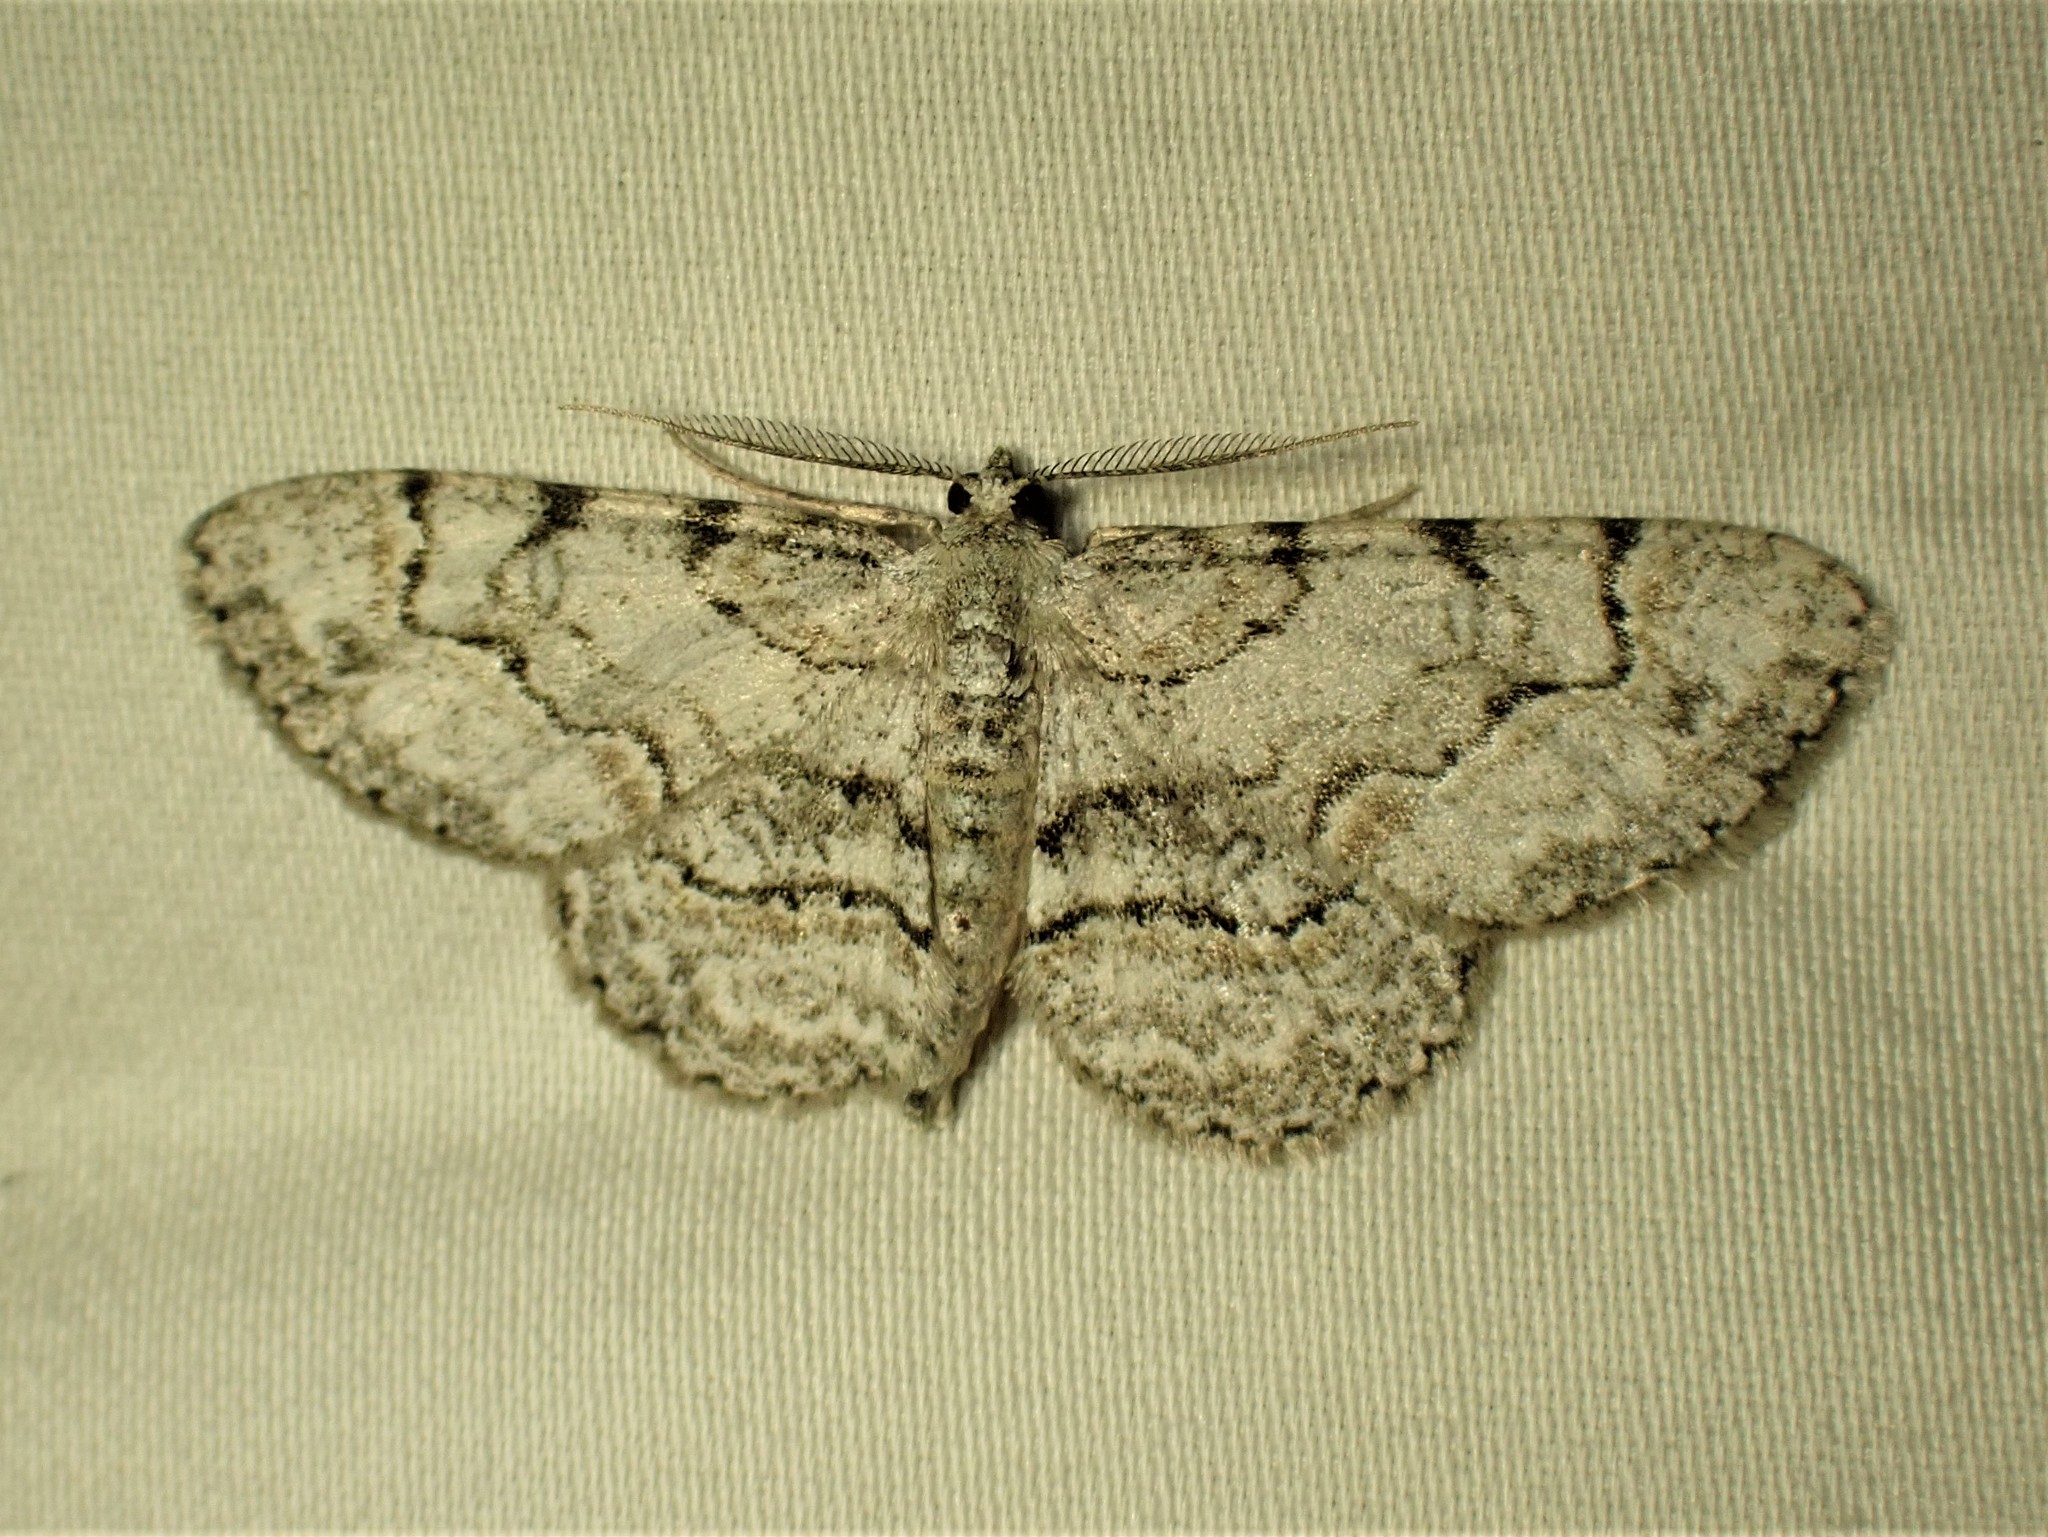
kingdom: Animalia
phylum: Arthropoda
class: Insecta
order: Lepidoptera
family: Geometridae
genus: Iridopsis
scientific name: Iridopsis ephyraria
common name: Pale-winged gray
